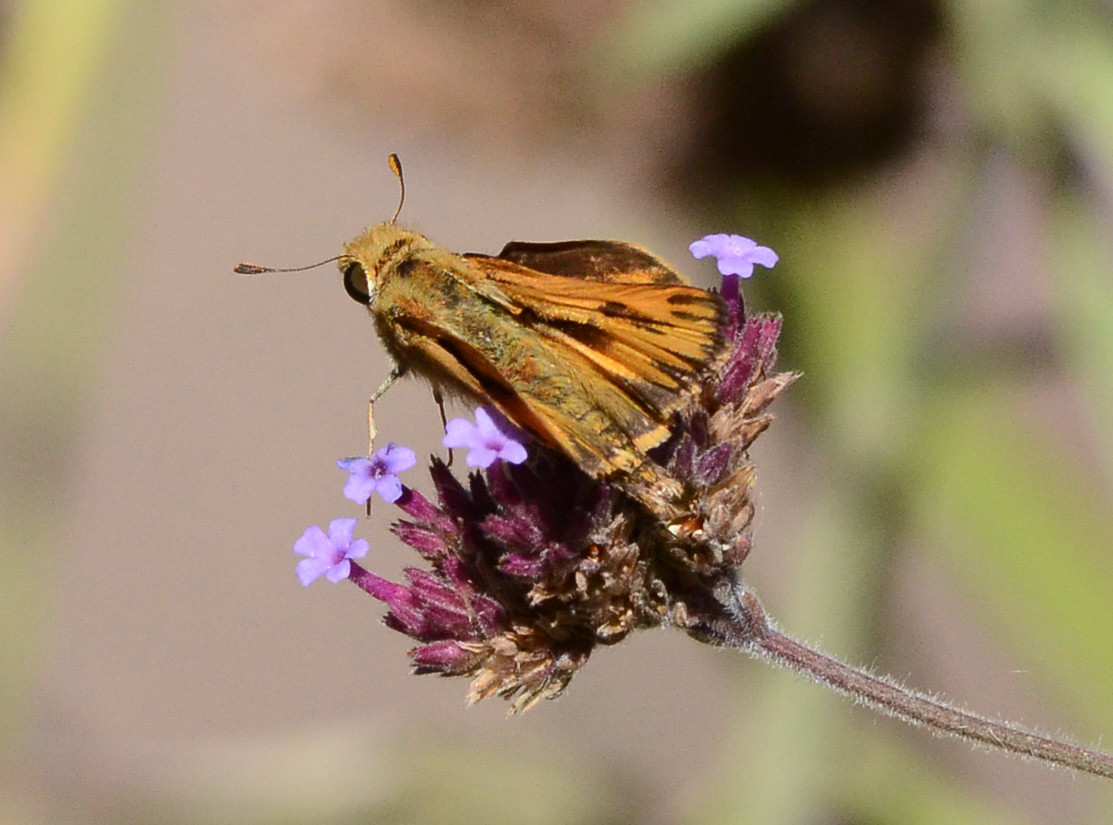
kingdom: Animalia
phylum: Arthropoda
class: Insecta
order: Lepidoptera
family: Hesperiidae
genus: Hylephila
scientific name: Hylephila phyleus
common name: Fiery skipper
